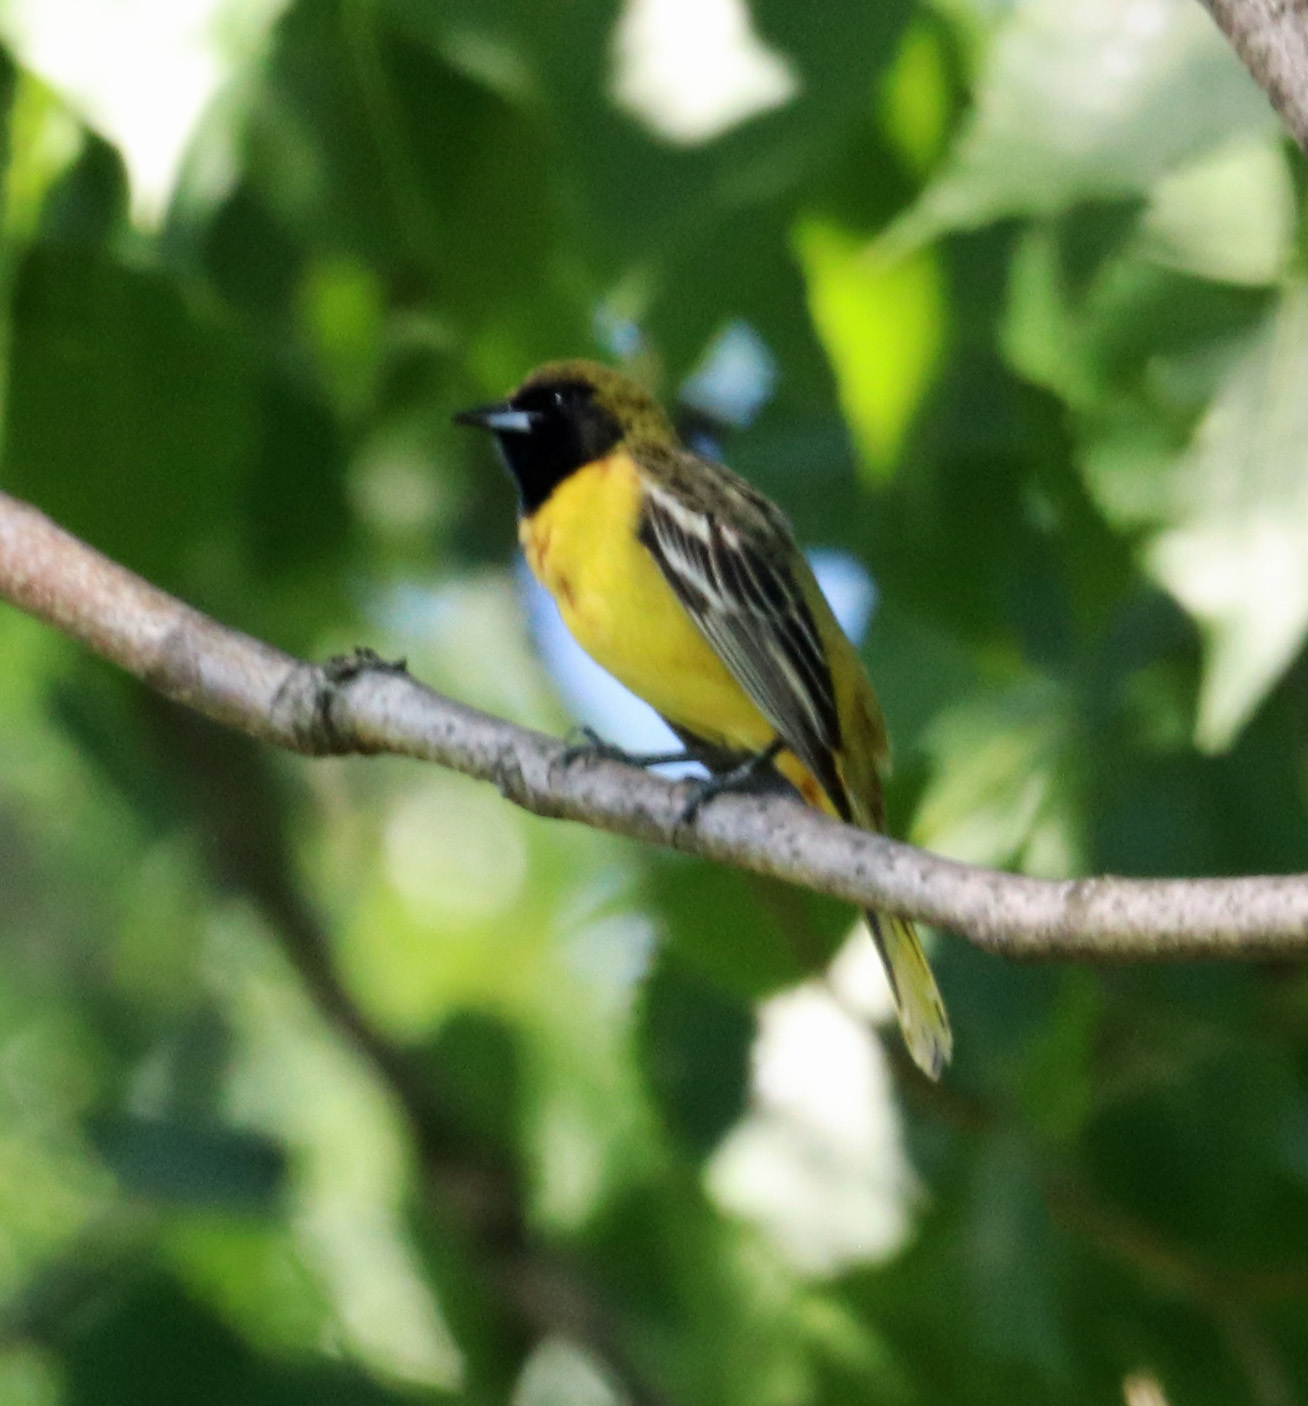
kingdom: Animalia
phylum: Chordata
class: Aves
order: Passeriformes
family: Icteridae
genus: Icterus
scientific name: Icterus spurius
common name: Orchard oriole
